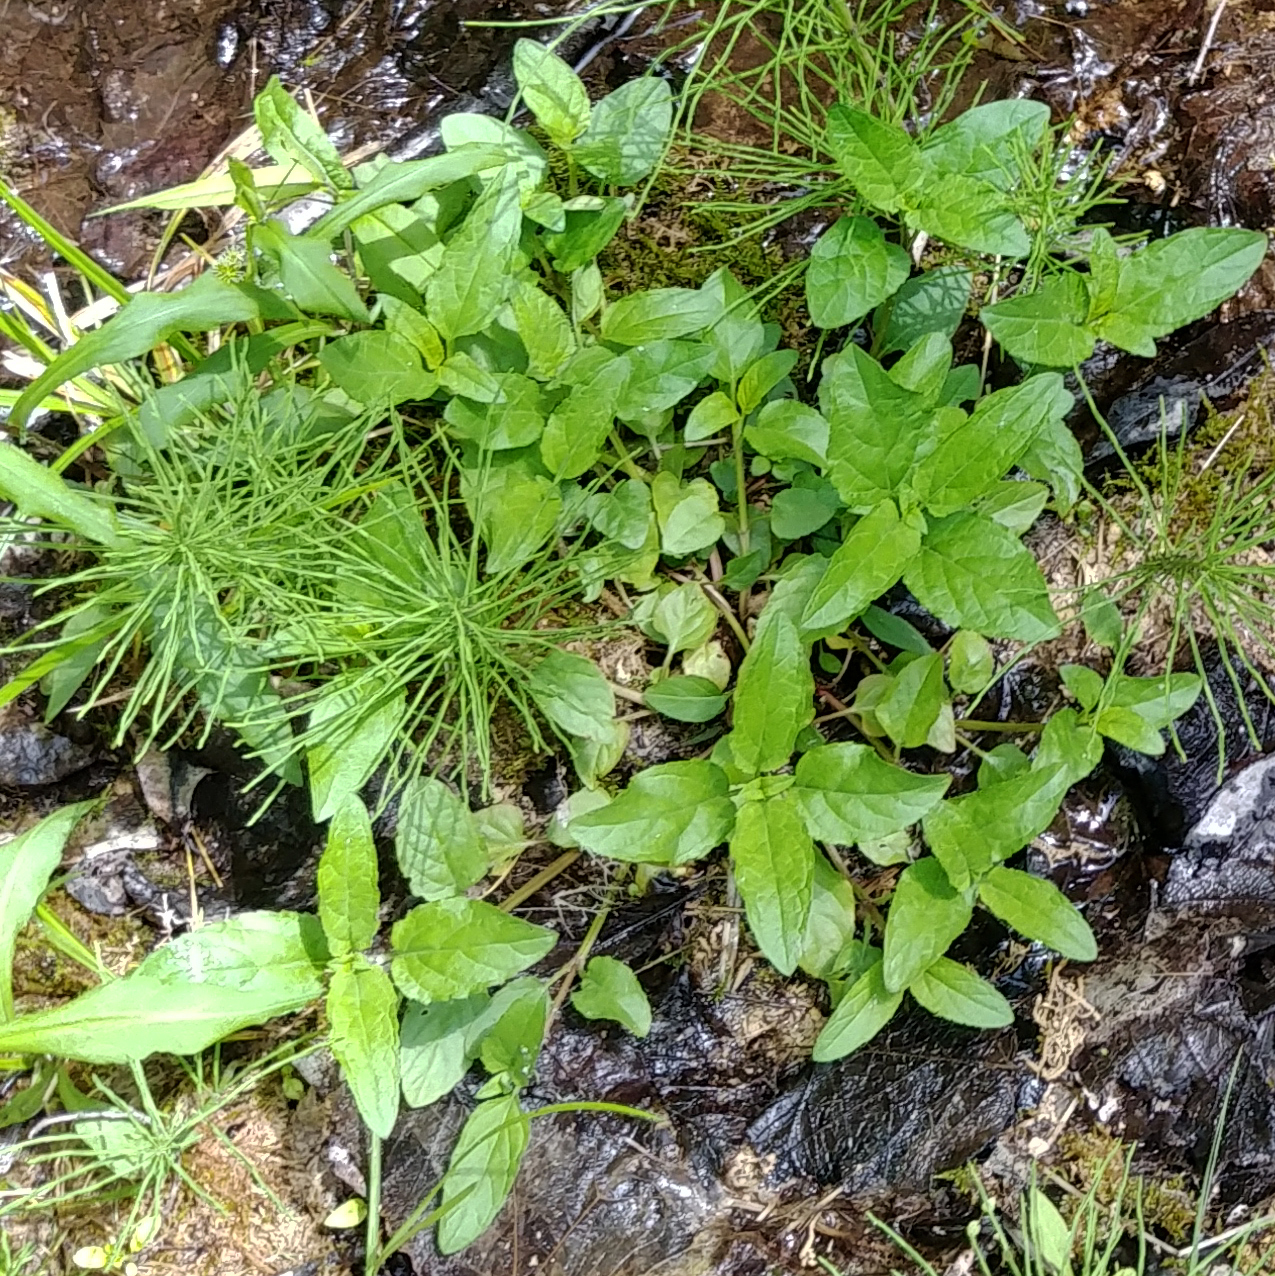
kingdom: Plantae
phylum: Tracheophyta
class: Magnoliopsida
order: Lamiales
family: Lamiaceae
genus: Prunella
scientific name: Prunella vulgaris
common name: Heal-all
